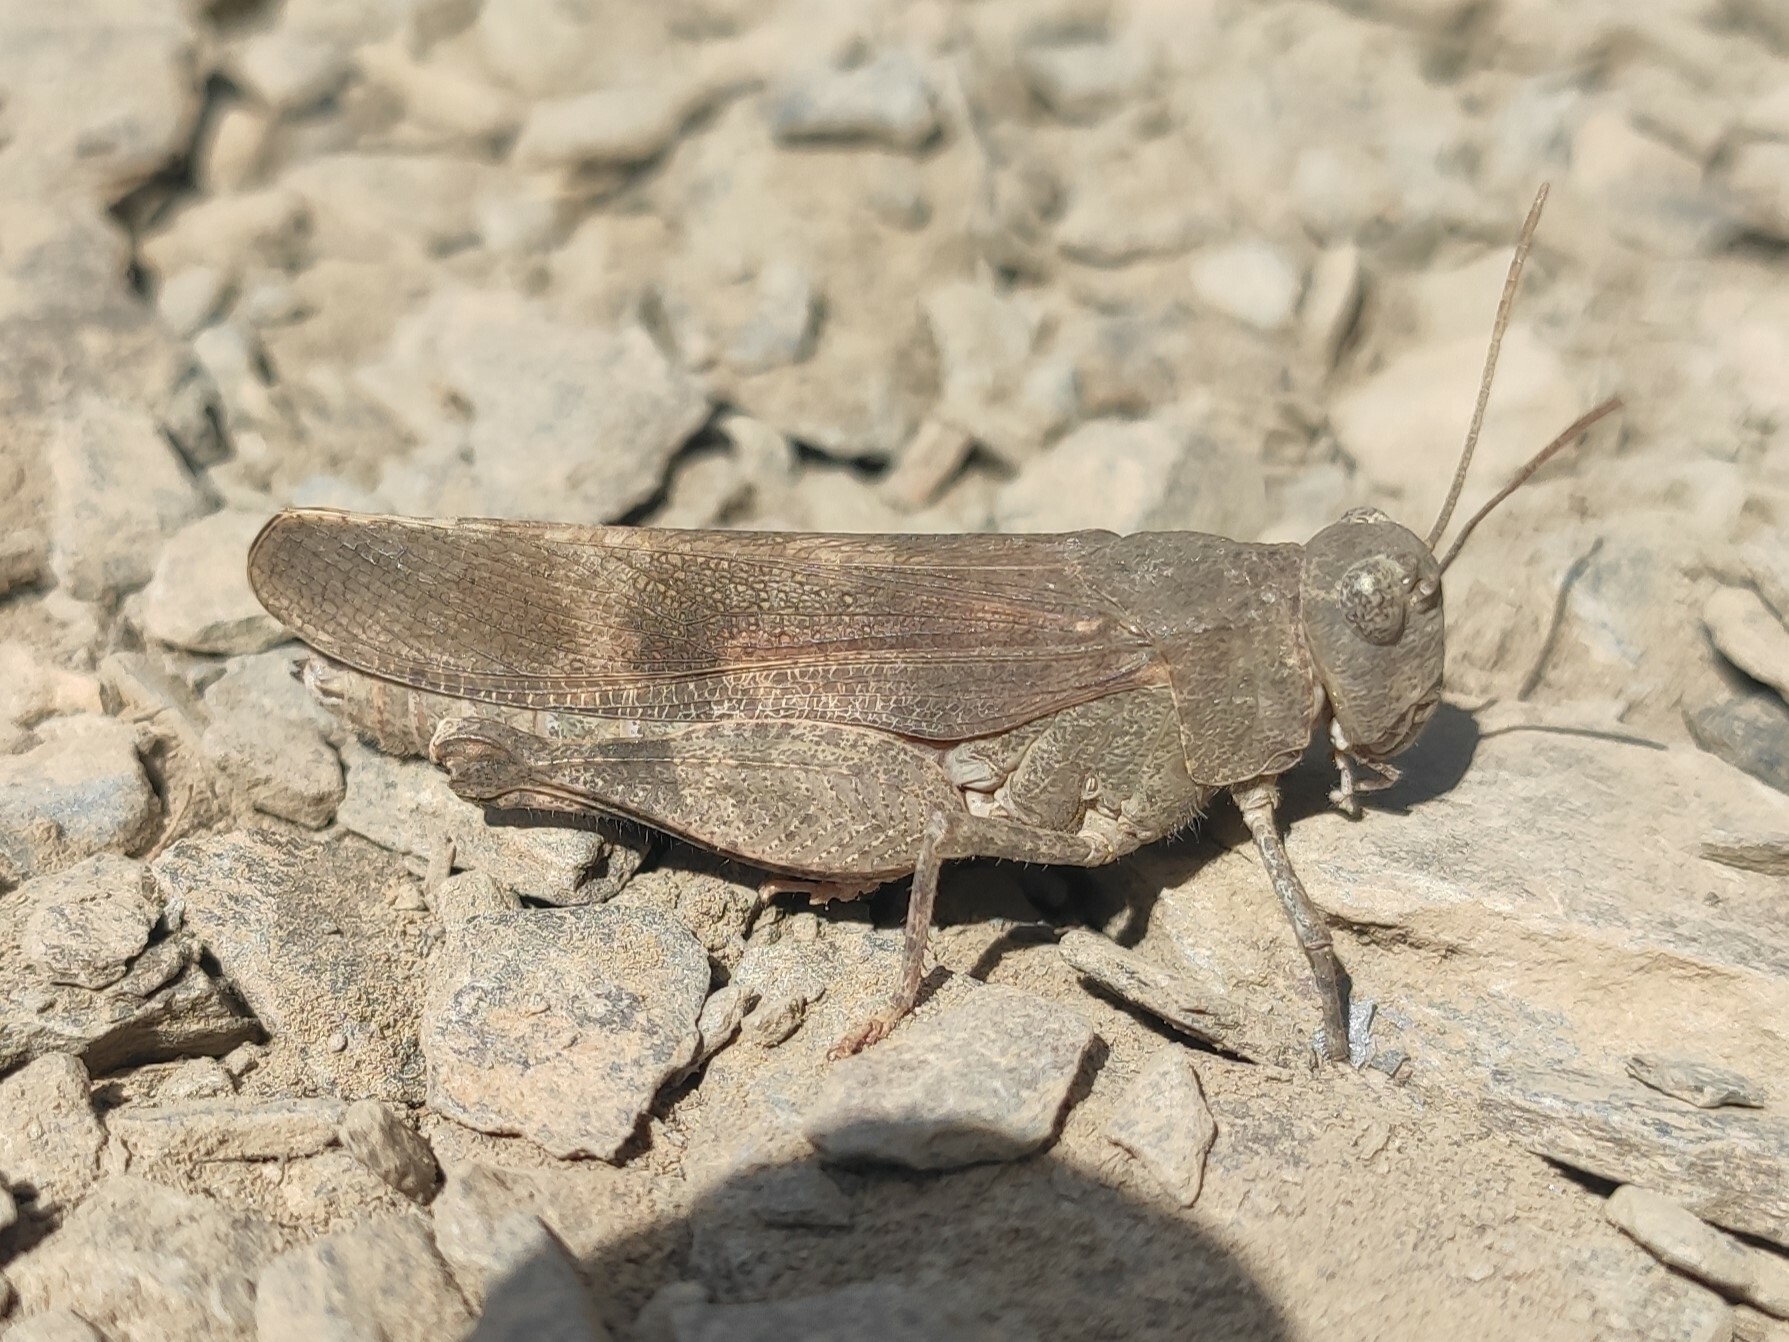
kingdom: Animalia
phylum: Arthropoda
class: Insecta
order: Orthoptera
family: Acrididae
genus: Oedipoda
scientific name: Oedipoda germanica
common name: Red band-winged grasshopper
